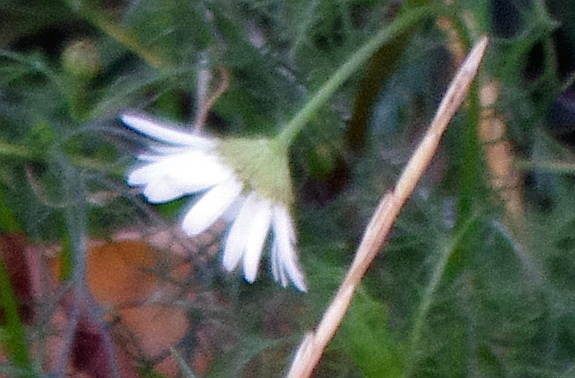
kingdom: Plantae
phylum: Tracheophyta
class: Magnoliopsida
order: Asterales
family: Asteraceae
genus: Tripleurospermum
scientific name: Tripleurospermum inodorum
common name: Scentless mayweed
